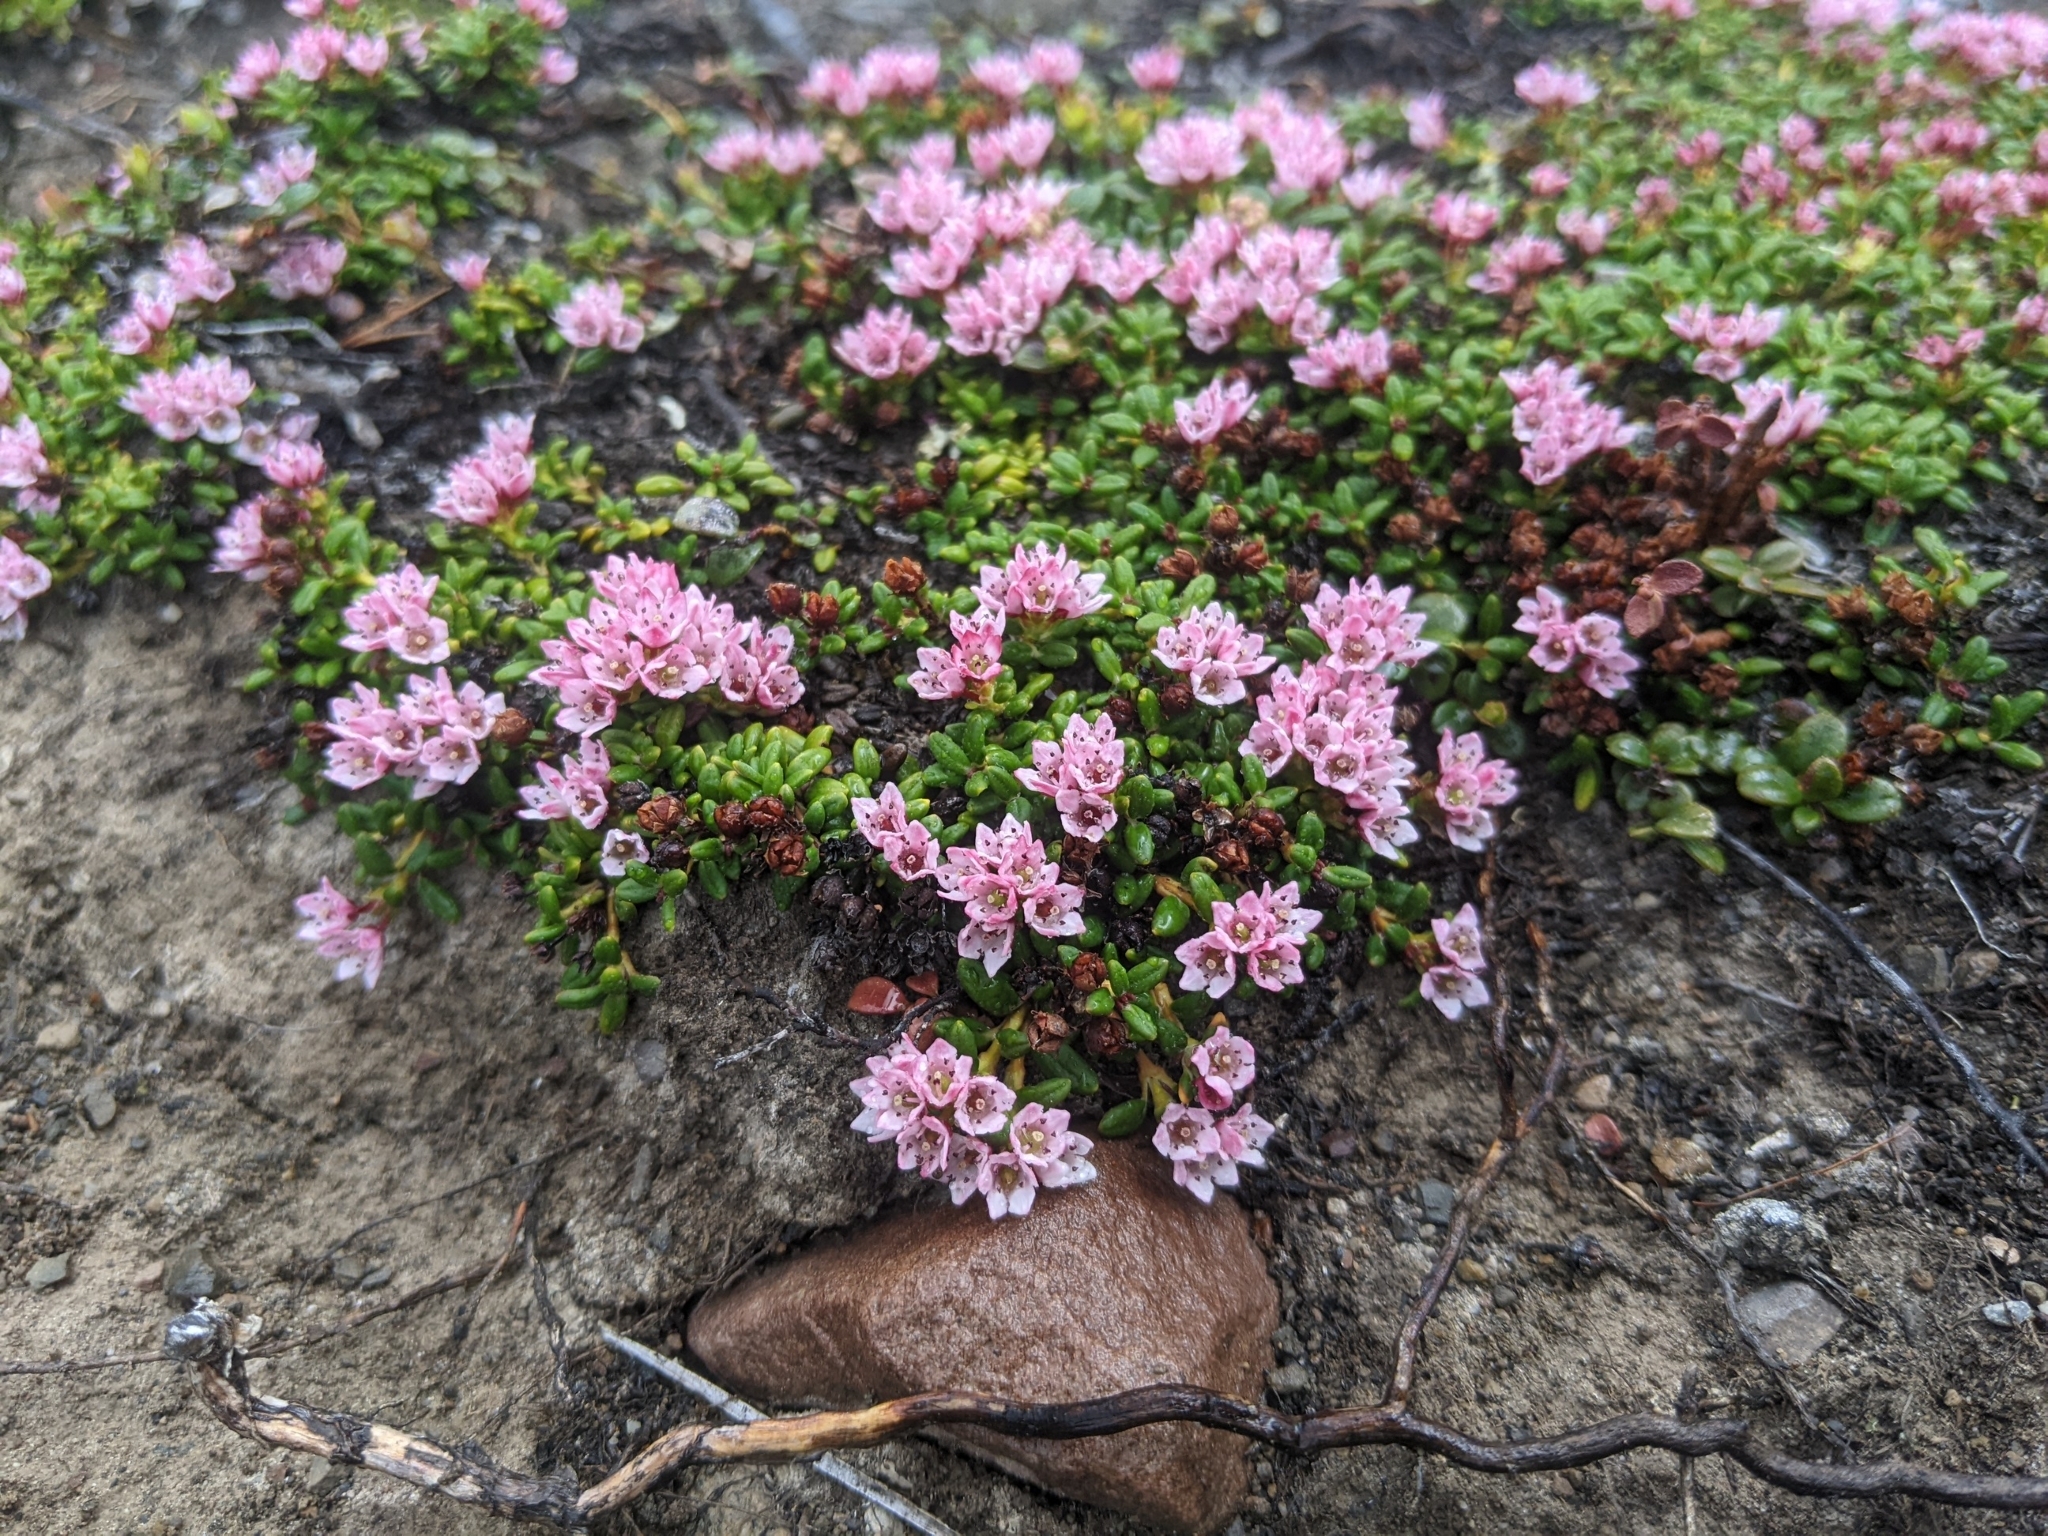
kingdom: Plantae
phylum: Tracheophyta
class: Magnoliopsida
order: Ericales
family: Ericaceae
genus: Kalmia
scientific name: Kalmia procumbens
